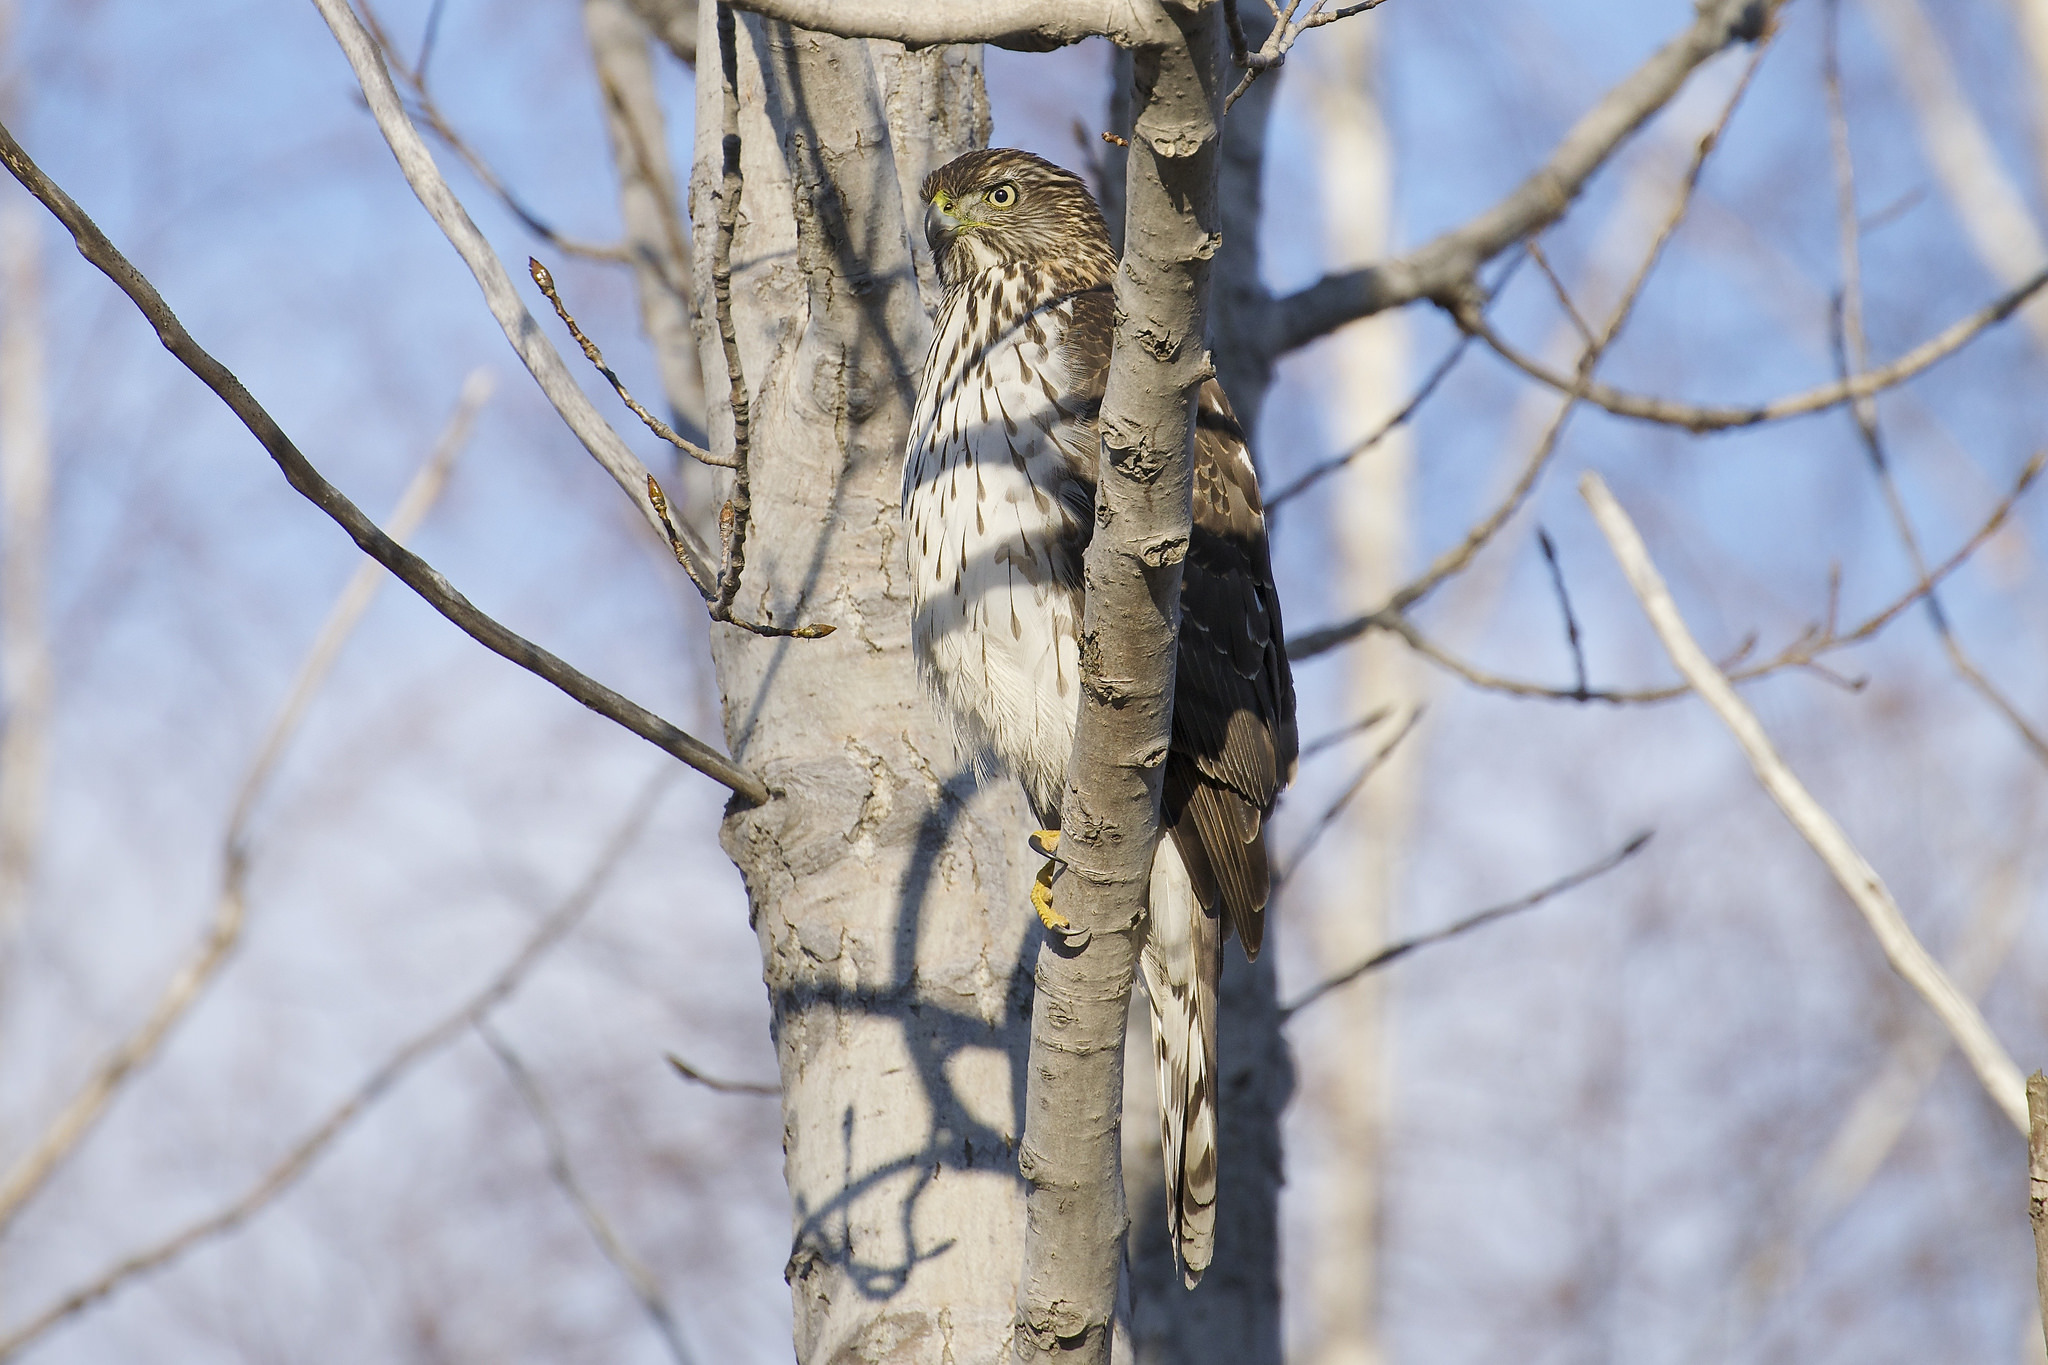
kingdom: Animalia
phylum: Chordata
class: Aves
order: Accipitriformes
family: Accipitridae
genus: Accipiter
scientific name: Accipiter cooperii
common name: Cooper's hawk
